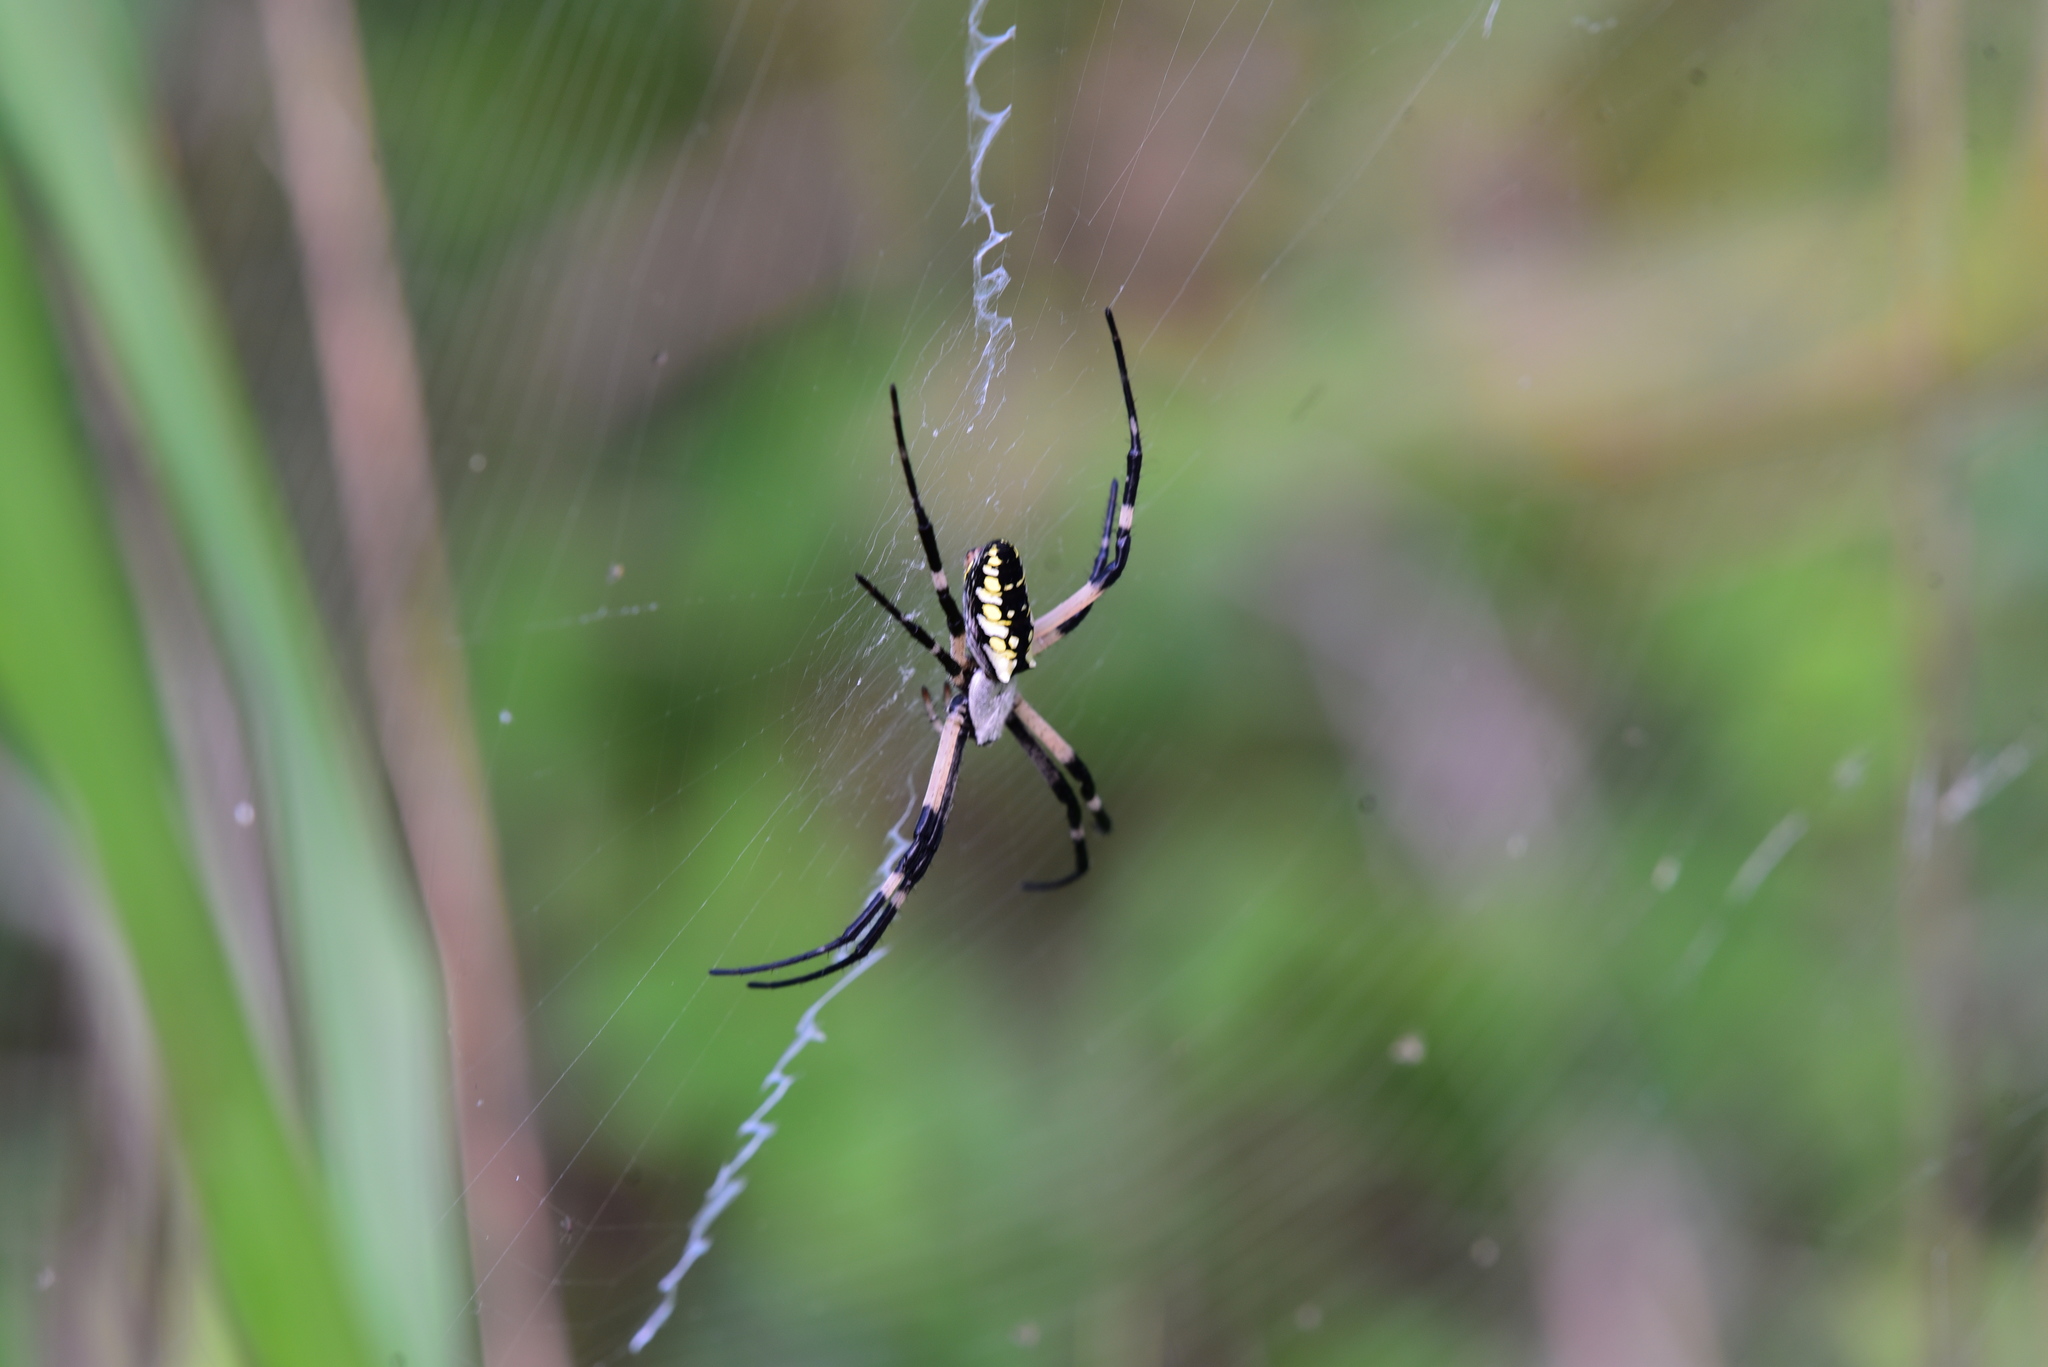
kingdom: Animalia
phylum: Arthropoda
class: Arachnida
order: Araneae
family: Araneidae
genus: Argiope
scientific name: Argiope aurantia
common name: Orb weavers
